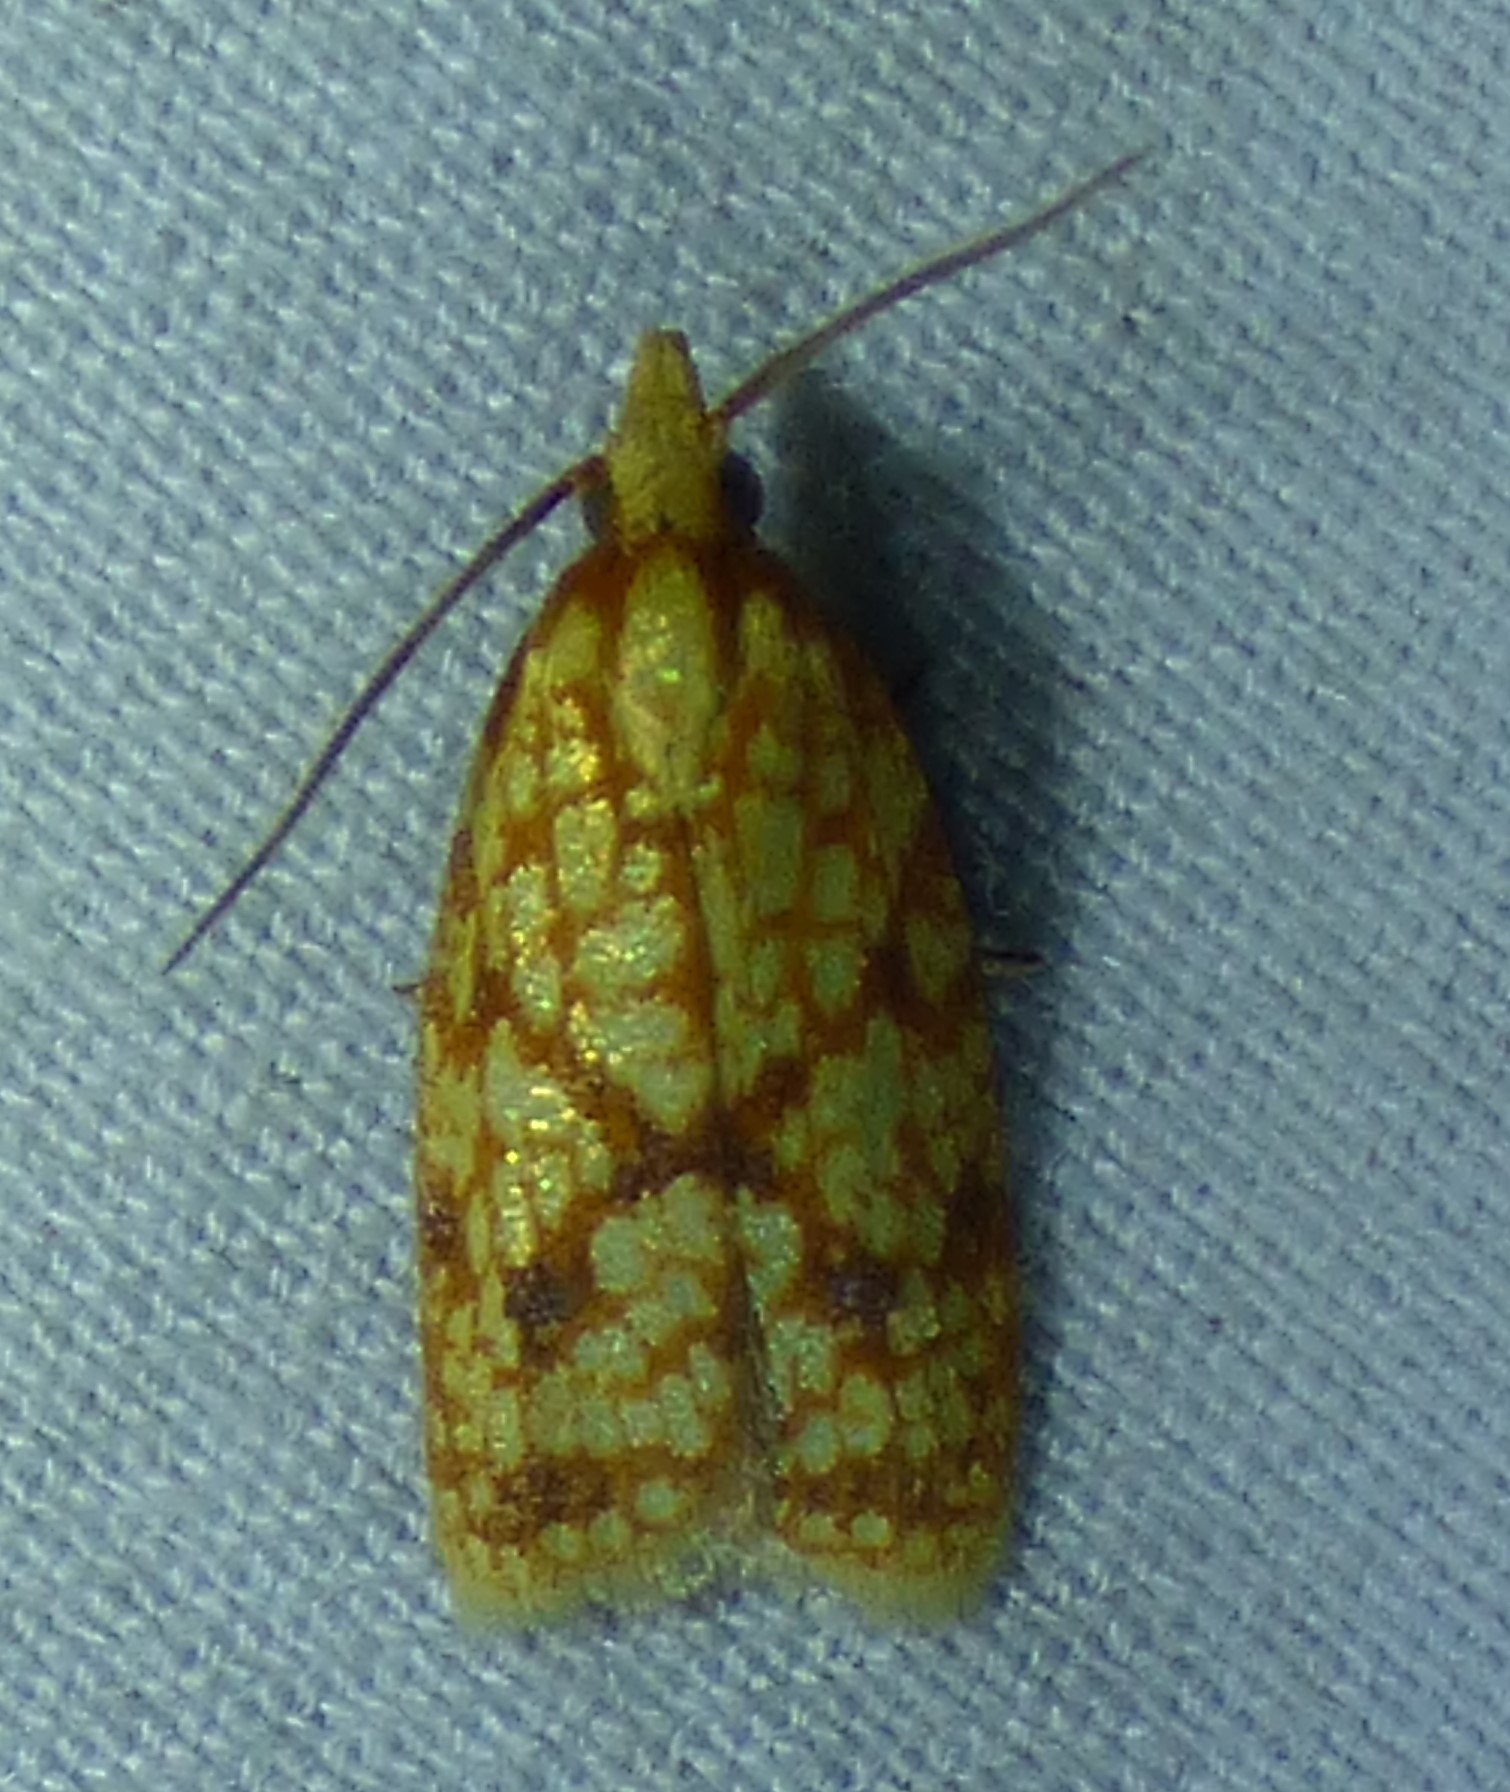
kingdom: Animalia
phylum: Arthropoda
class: Insecta
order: Lepidoptera
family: Tortricidae
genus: Sparganothis
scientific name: Sparganothis sulfureana
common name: Sparganothis fruitworm moth
